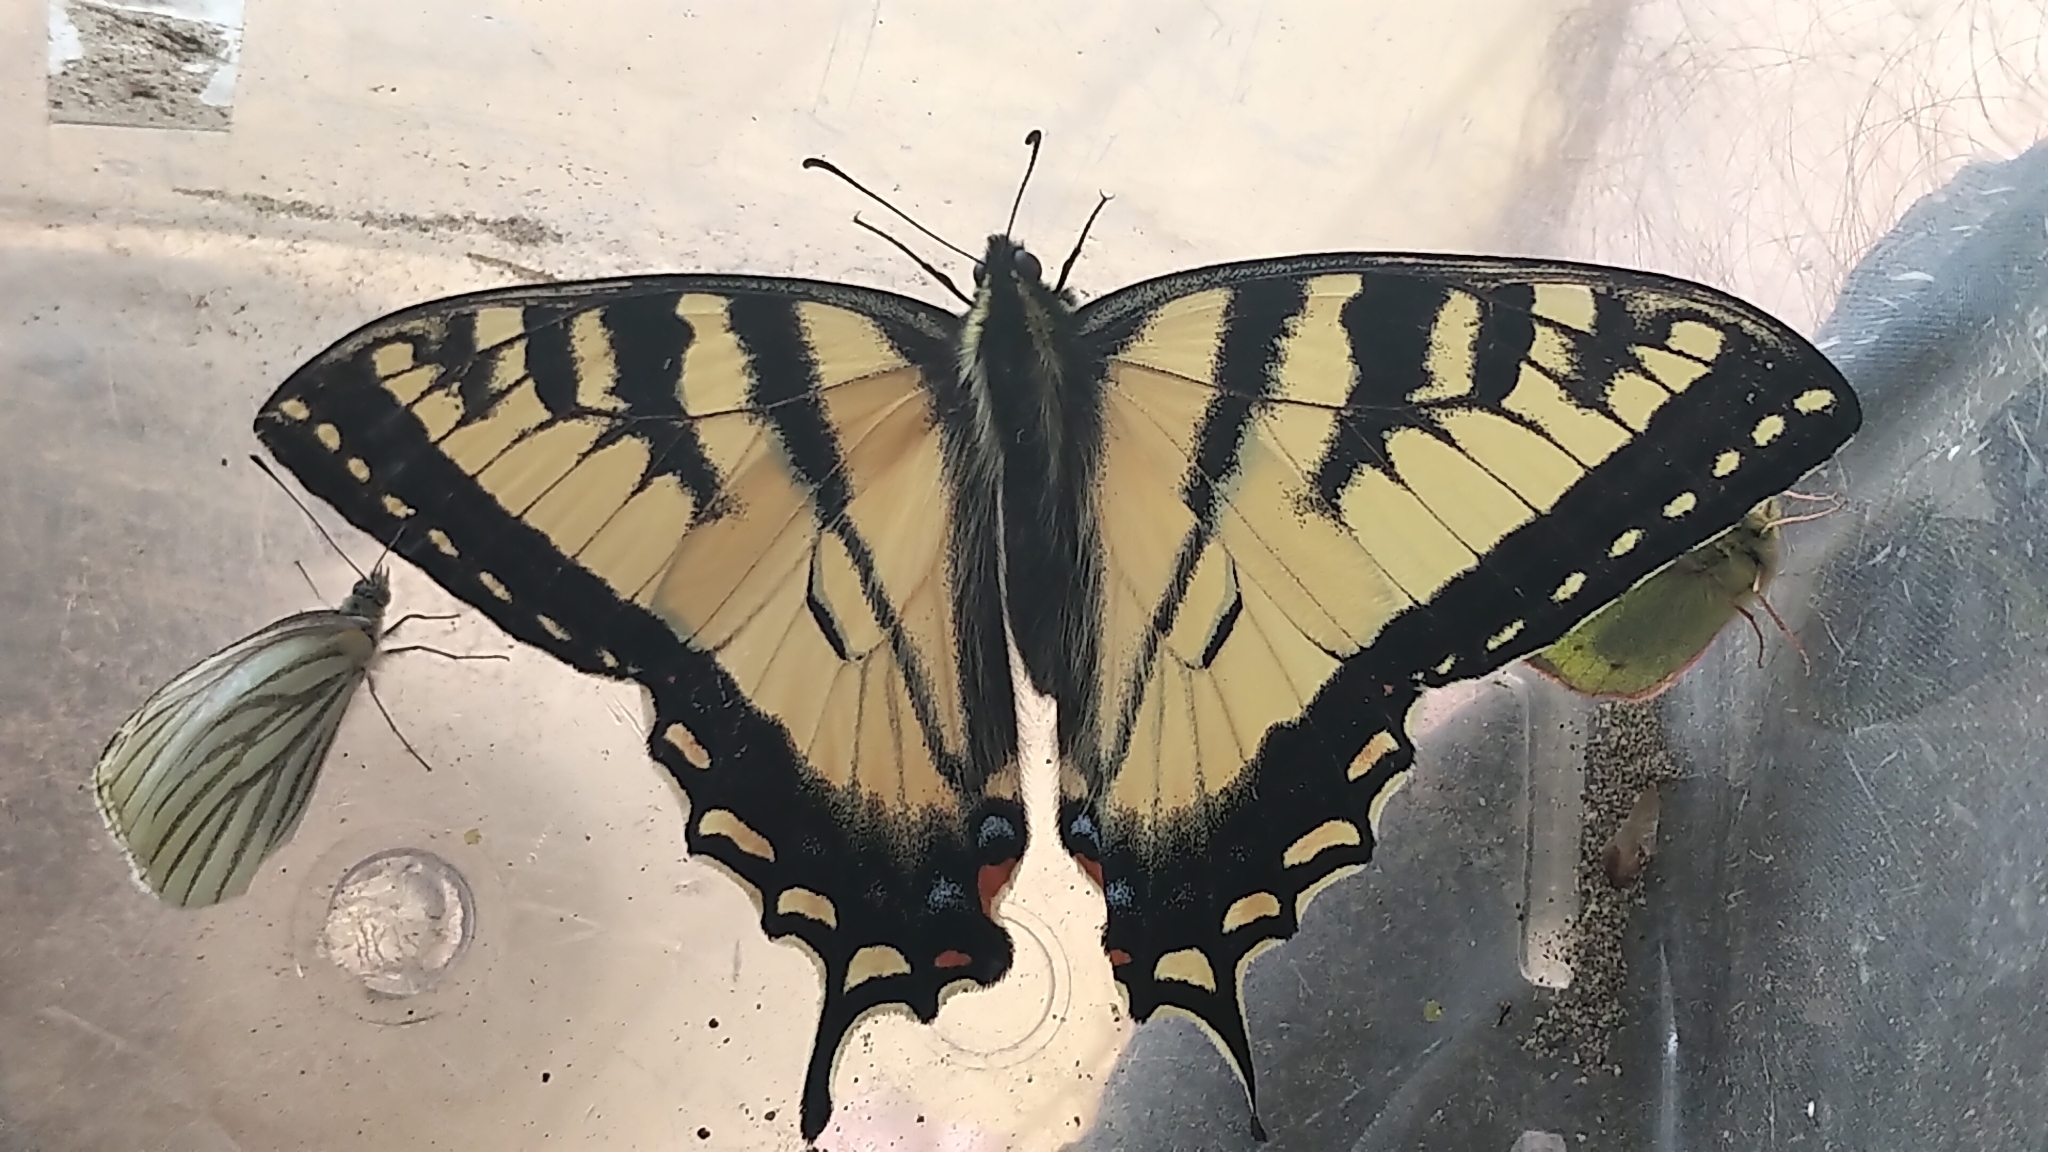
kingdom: Animalia
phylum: Arthropoda
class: Insecta
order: Lepidoptera
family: Papilionidae
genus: Papilio
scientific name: Papilio canadensis
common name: Canadian tiger swallowtail
